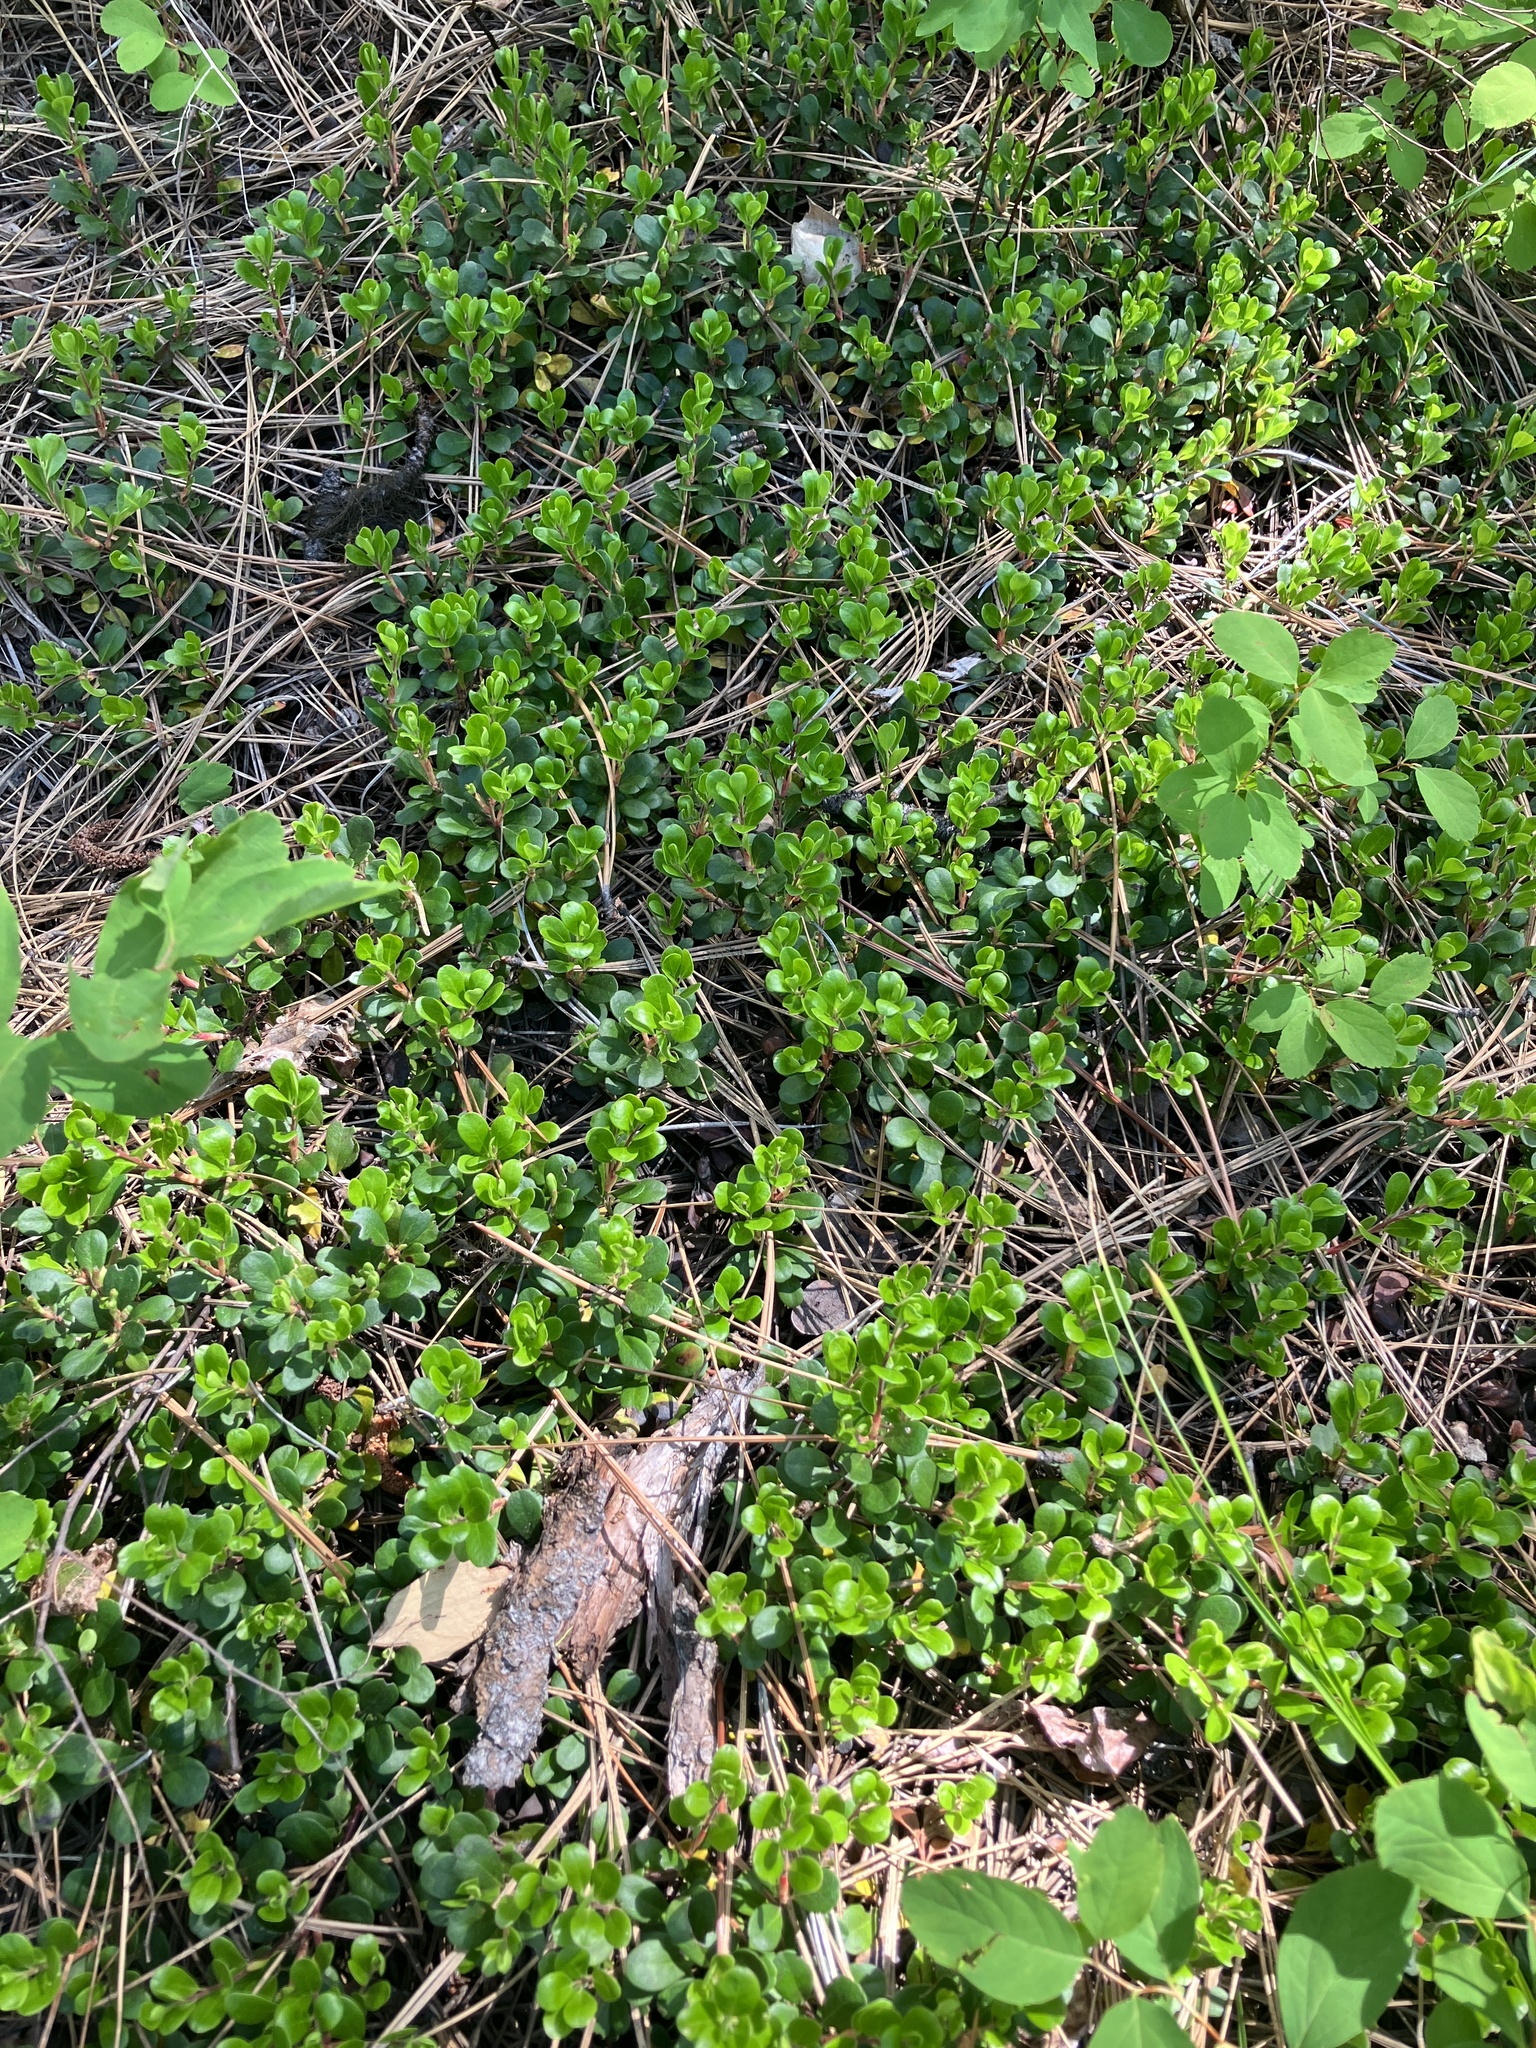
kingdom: Plantae
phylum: Tracheophyta
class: Magnoliopsida
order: Ericales
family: Ericaceae
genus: Arctostaphylos
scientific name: Arctostaphylos uva-ursi
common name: Bearberry
